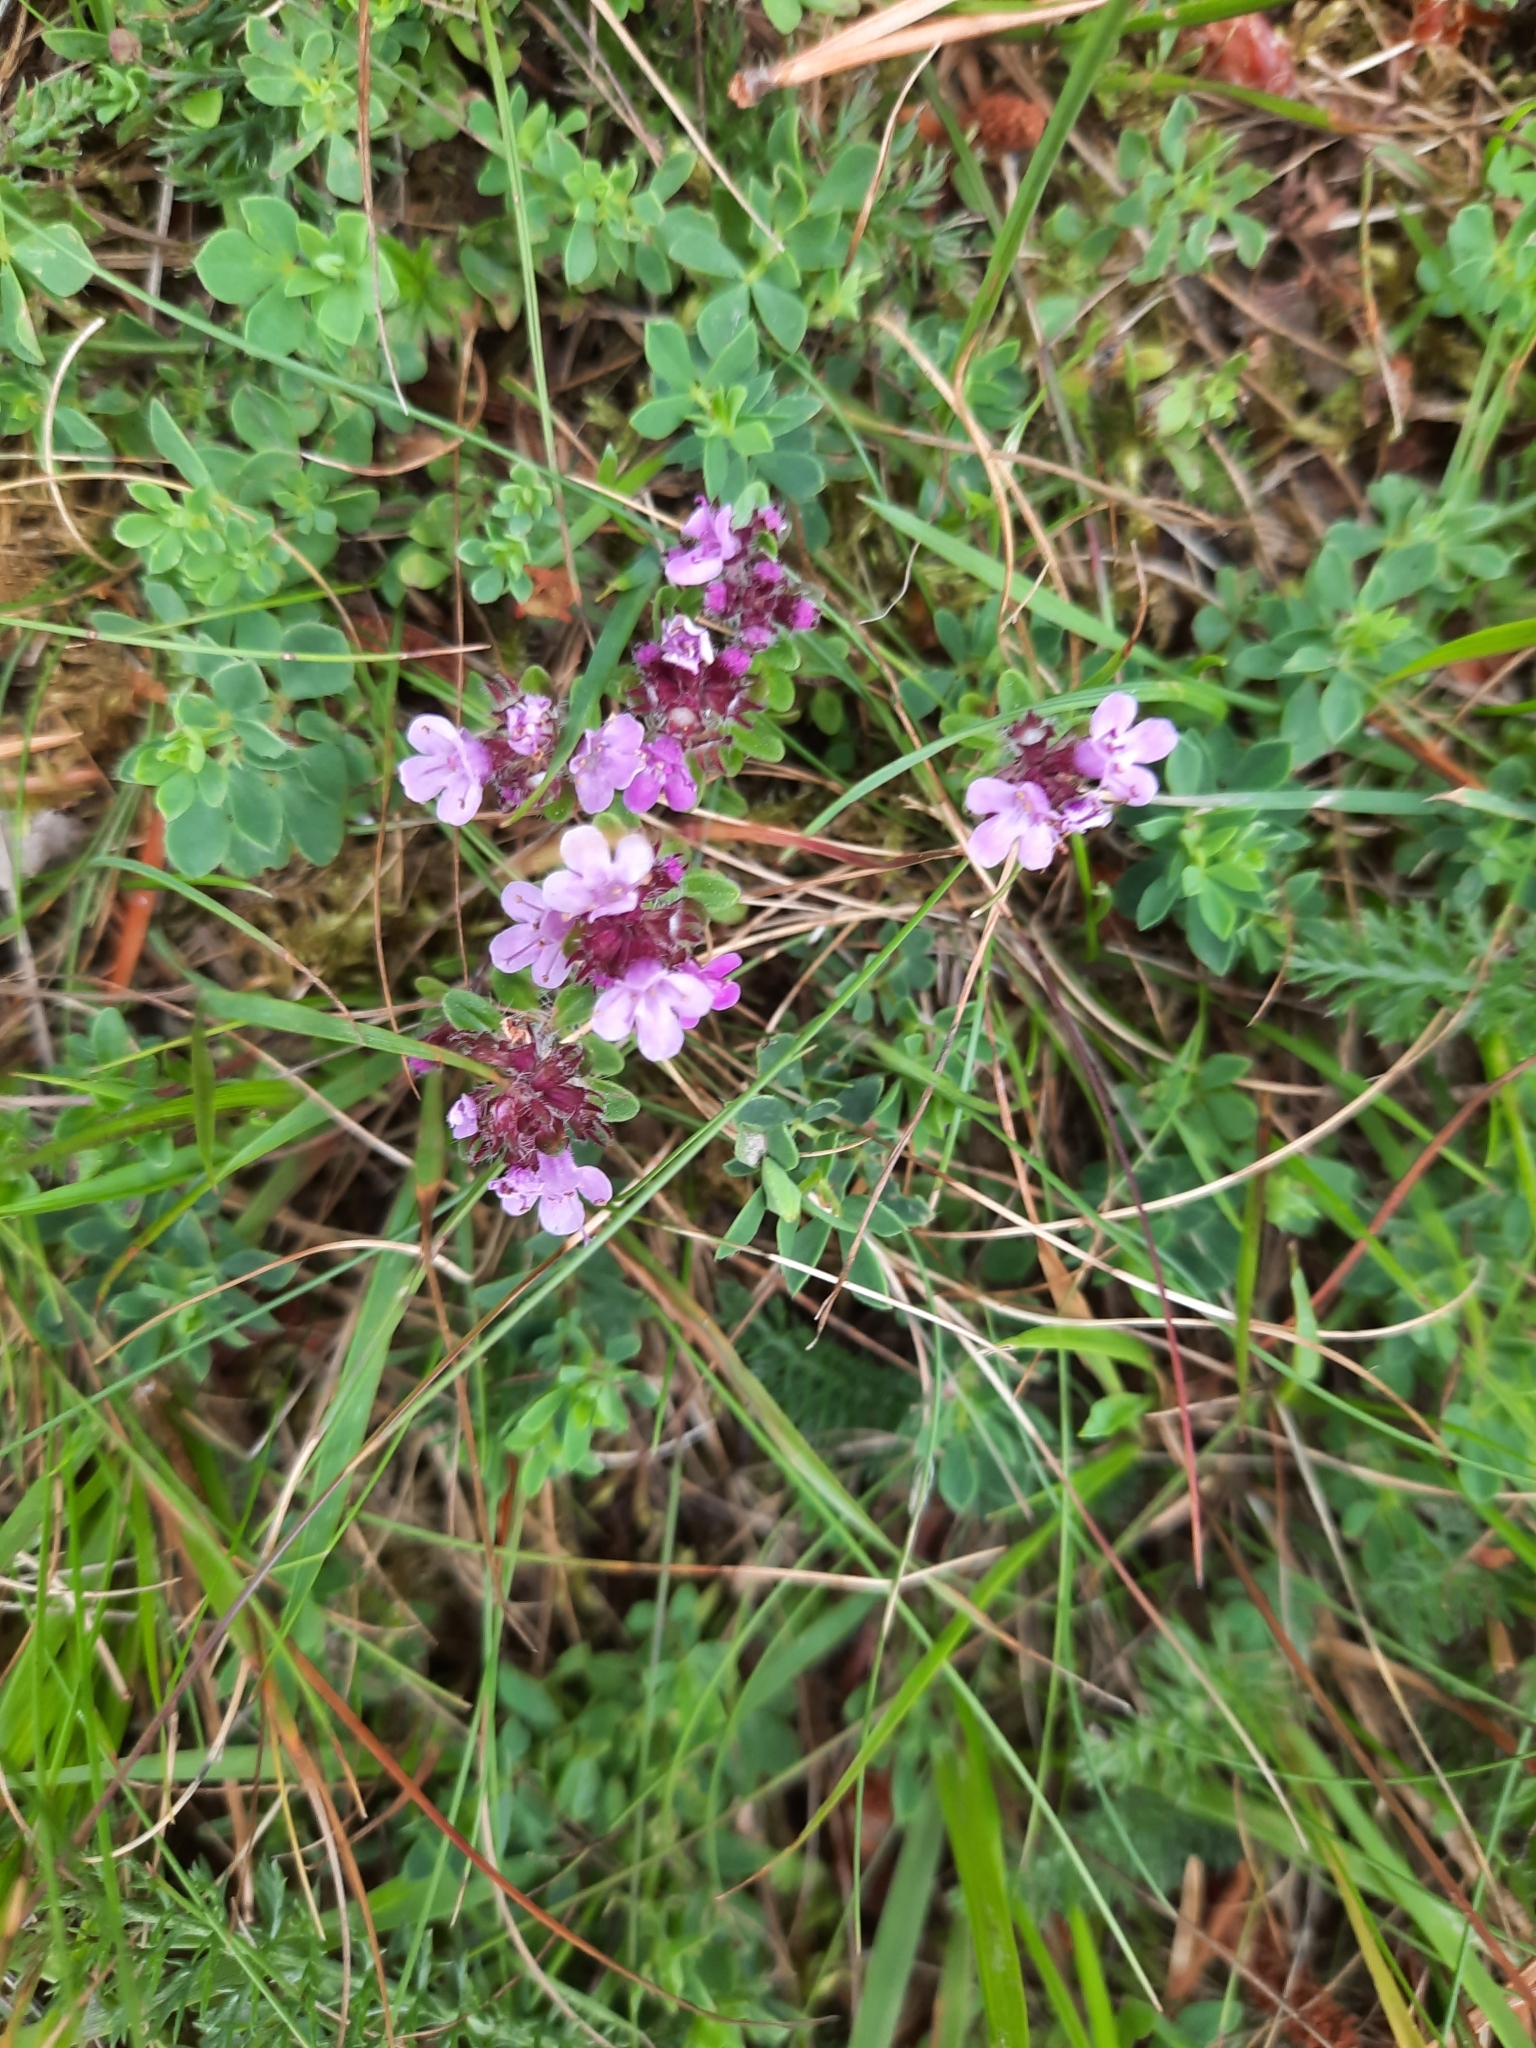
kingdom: Plantae
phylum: Tracheophyta
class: Magnoliopsida
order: Lamiales
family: Lamiaceae
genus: Thymus
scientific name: Thymus vulgaris
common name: Garden thyme
